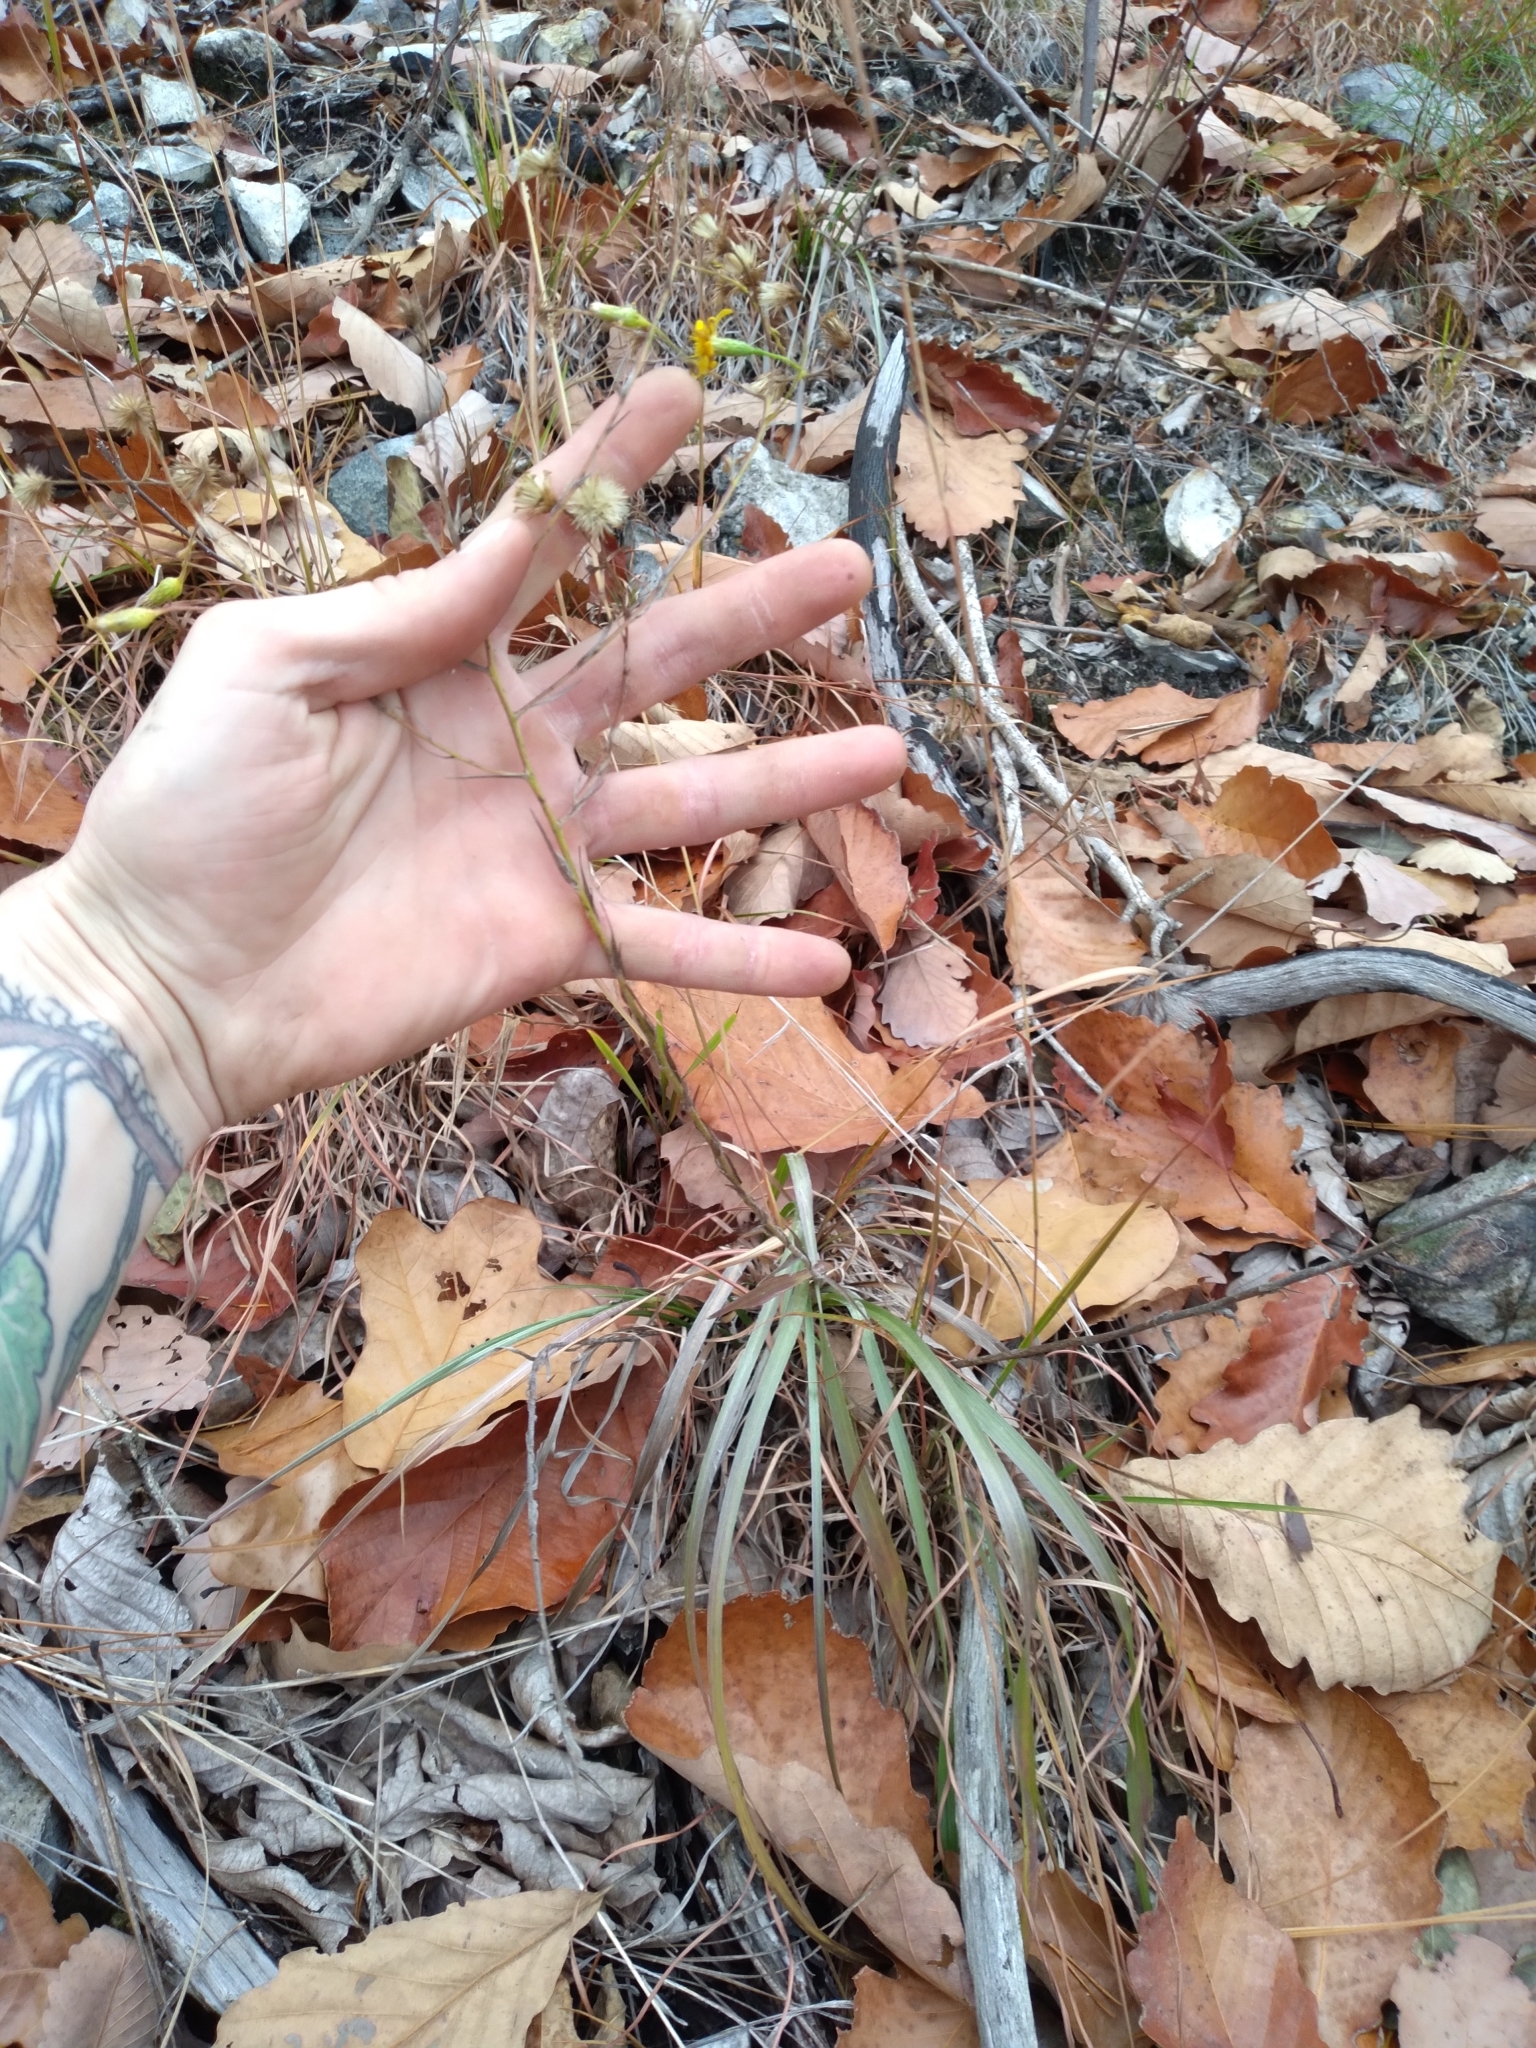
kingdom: Plantae
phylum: Tracheophyta
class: Magnoliopsida
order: Asterales
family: Asteraceae
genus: Pityopsis
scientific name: Pityopsis graminifolia
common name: Grass-leaf golden-aster
